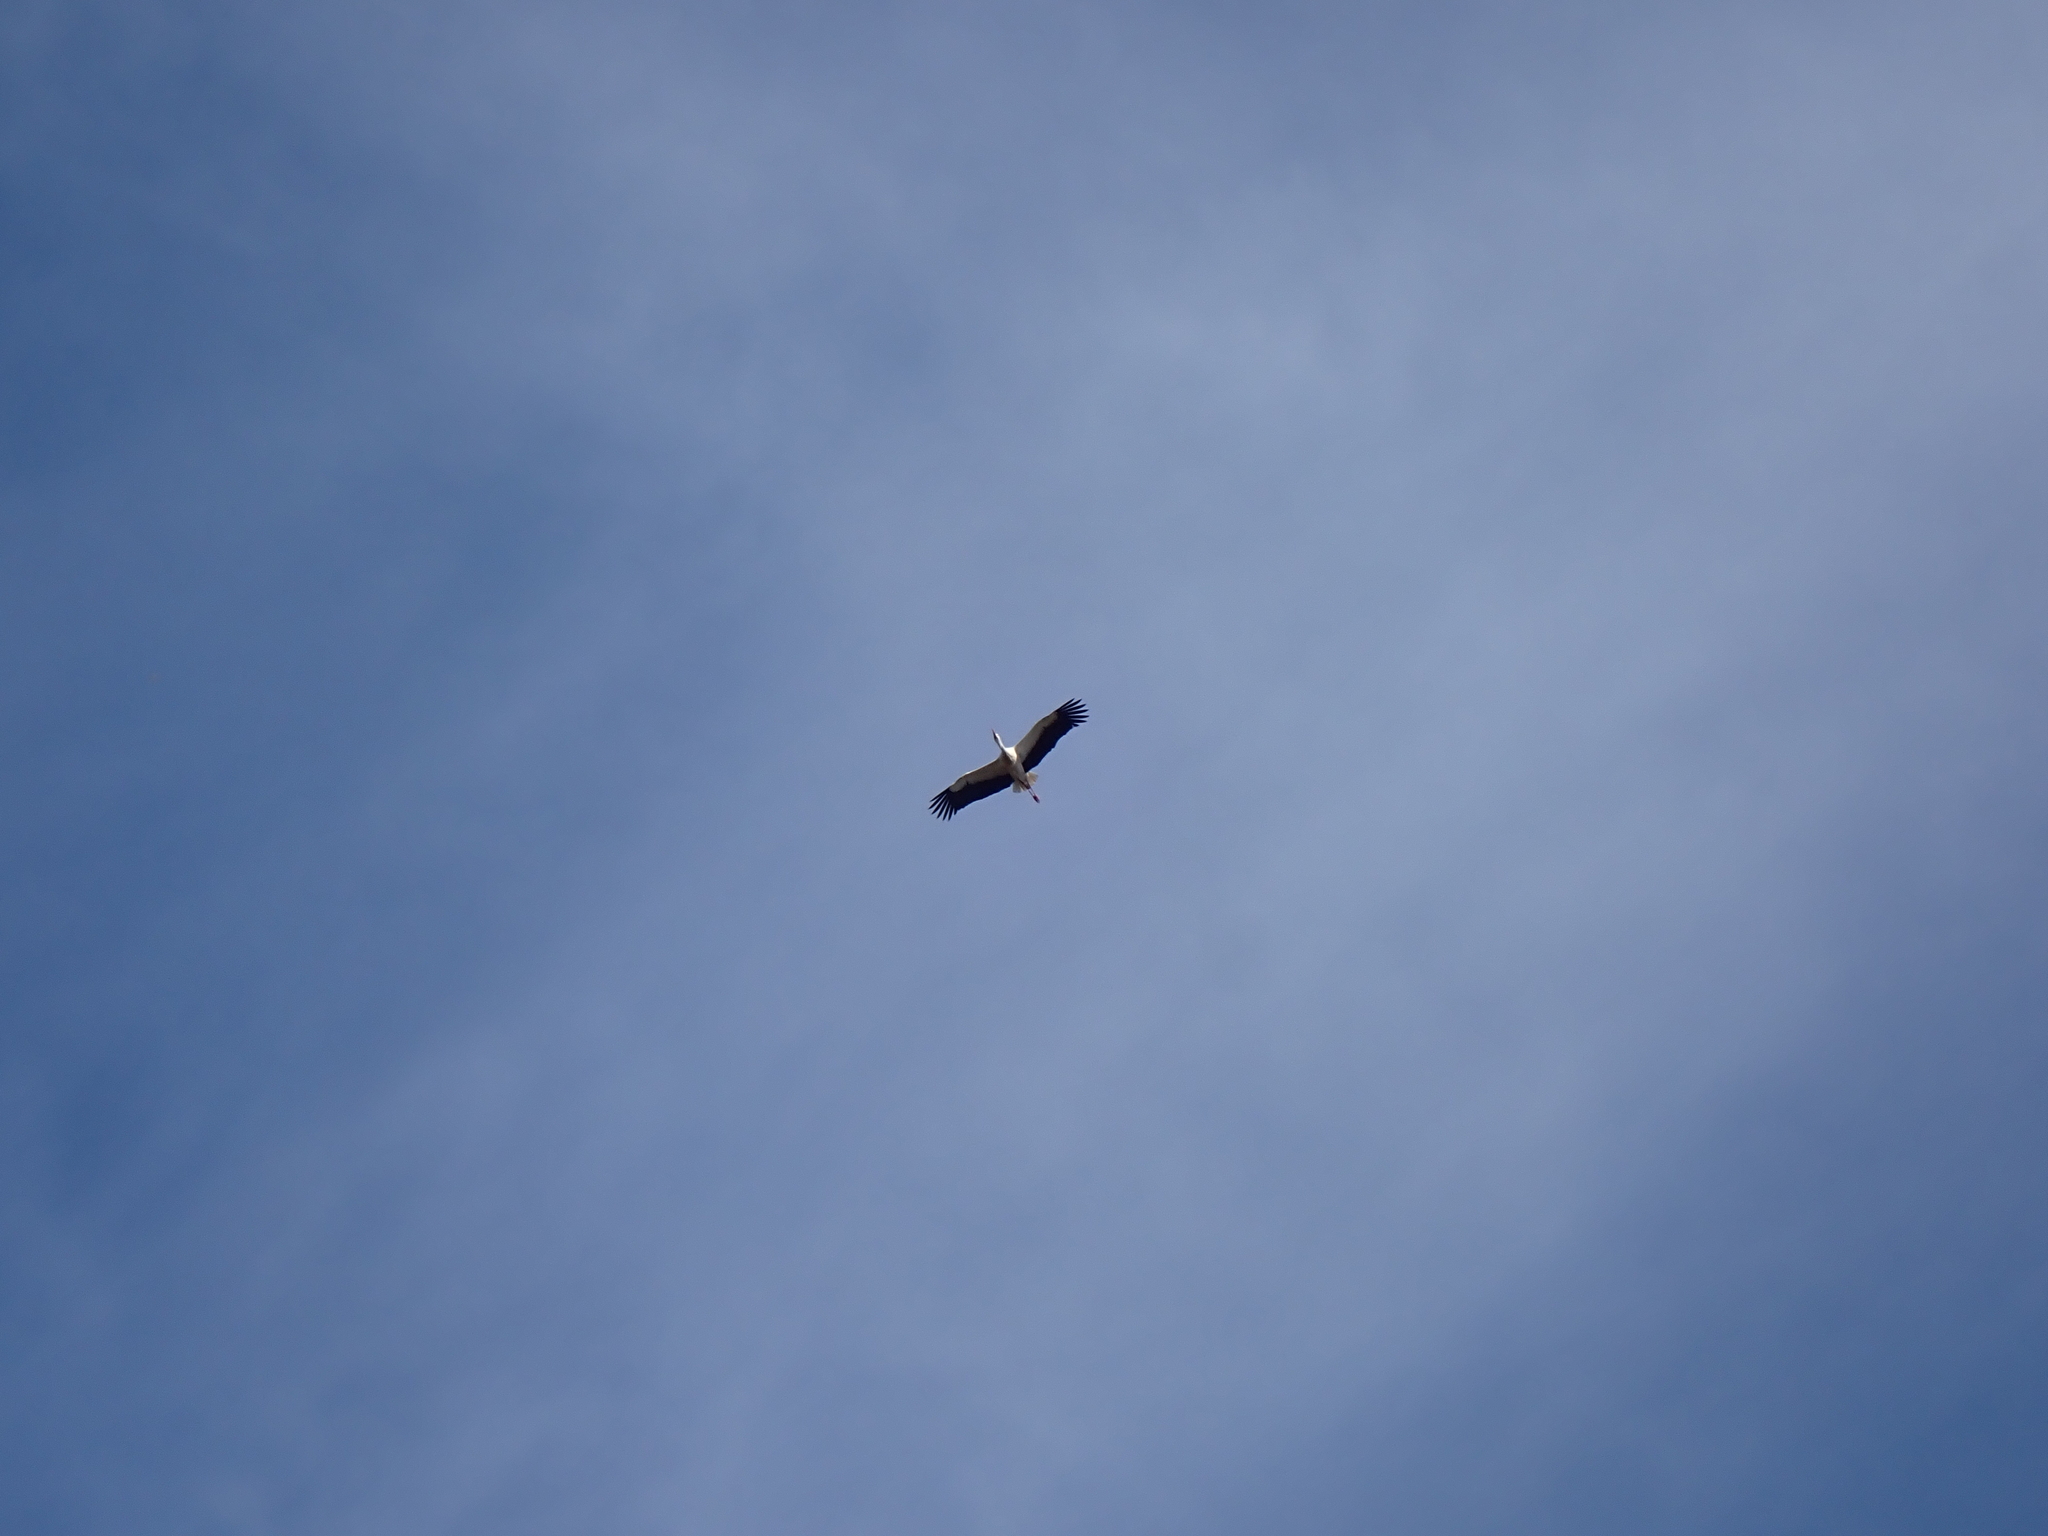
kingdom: Animalia
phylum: Chordata
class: Aves
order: Ciconiiformes
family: Ciconiidae
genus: Ciconia
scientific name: Ciconia ciconia
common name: White stork
